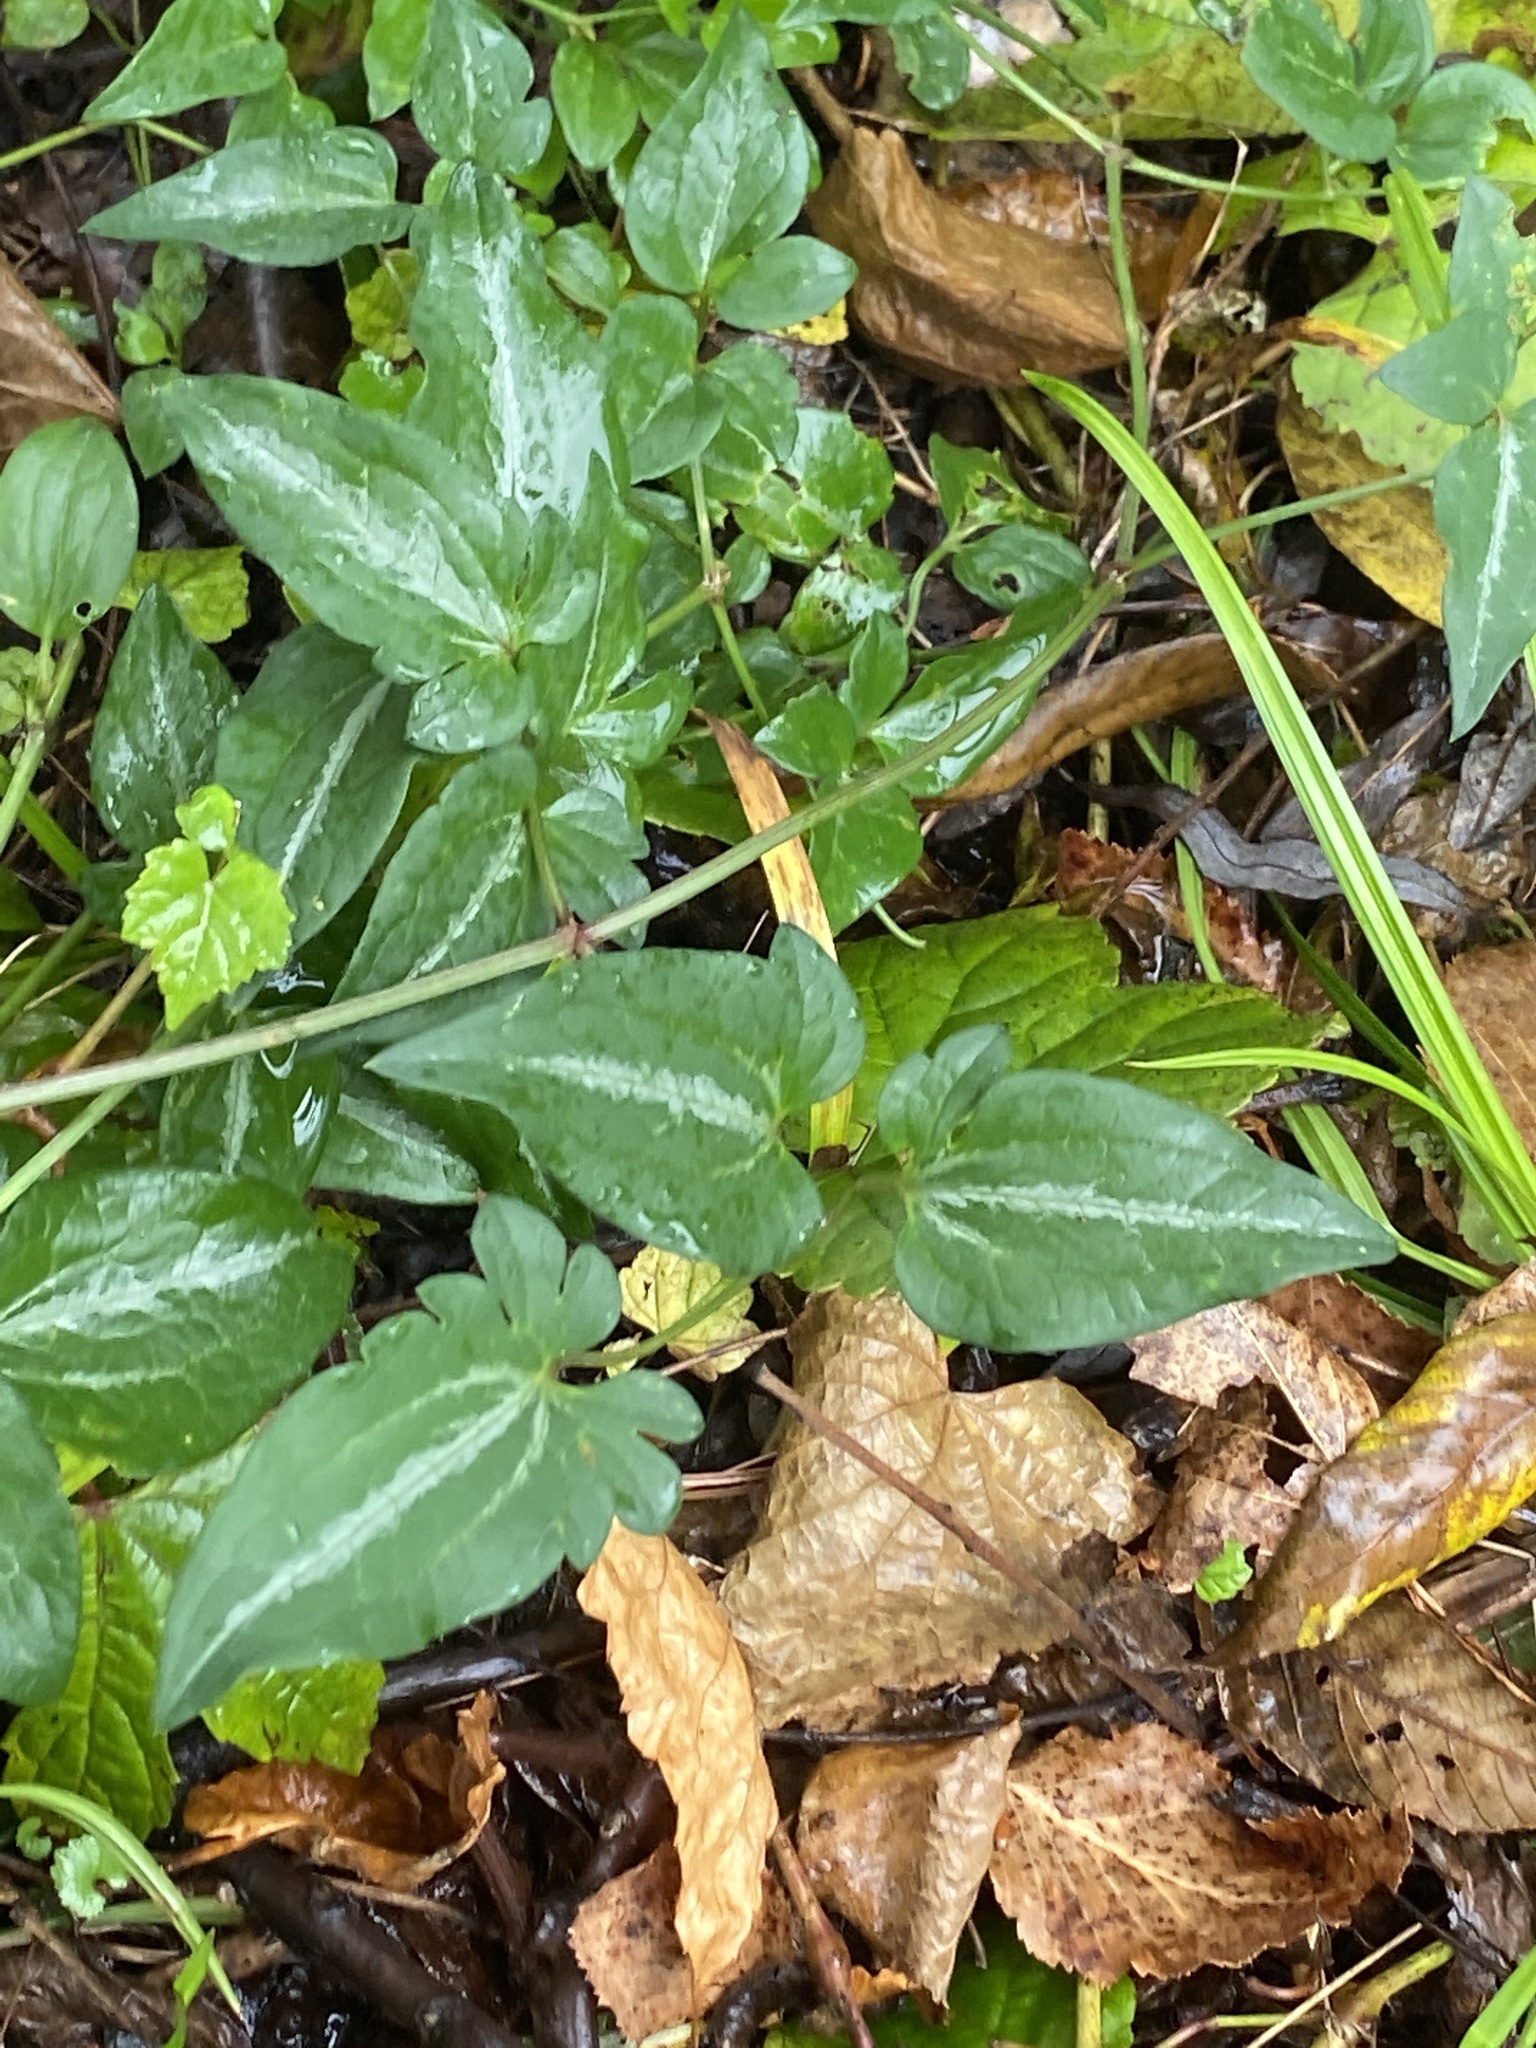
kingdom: Plantae
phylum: Tracheophyta
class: Magnoliopsida
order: Ranunculales
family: Ranunculaceae
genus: Clematis
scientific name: Clematis terniflora
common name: Sweet autumn clematis
